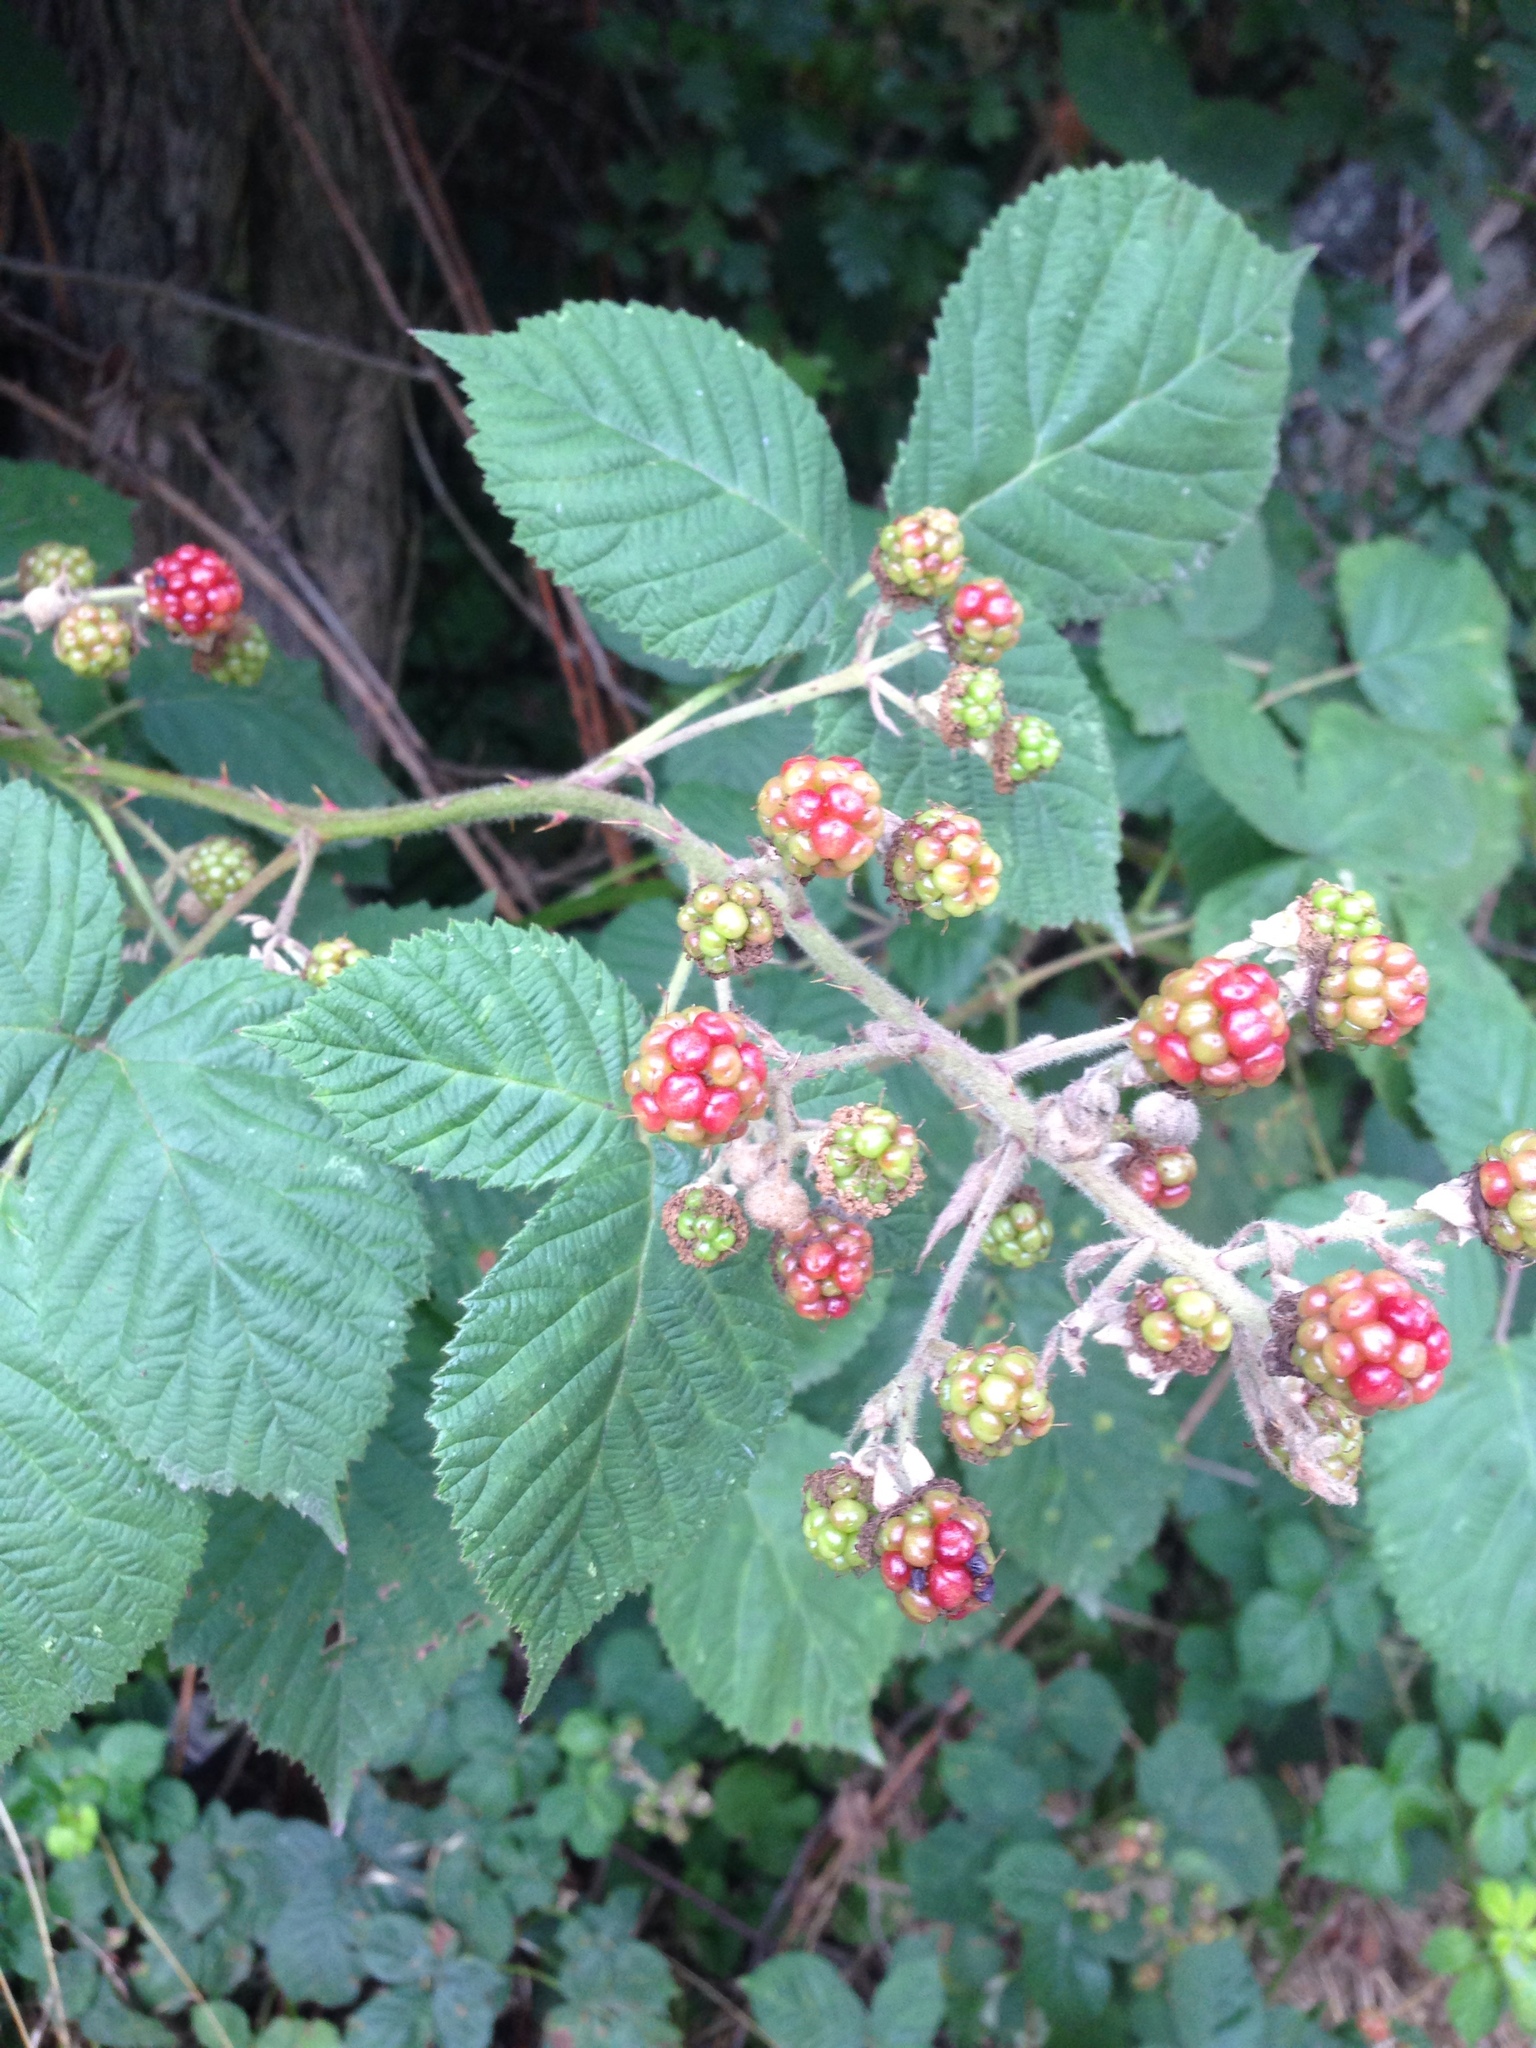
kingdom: Plantae
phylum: Tracheophyta
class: Magnoliopsida
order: Rosales
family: Rosaceae
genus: Rubus
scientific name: Rubus armeniacus
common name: Himalayan blackberry
